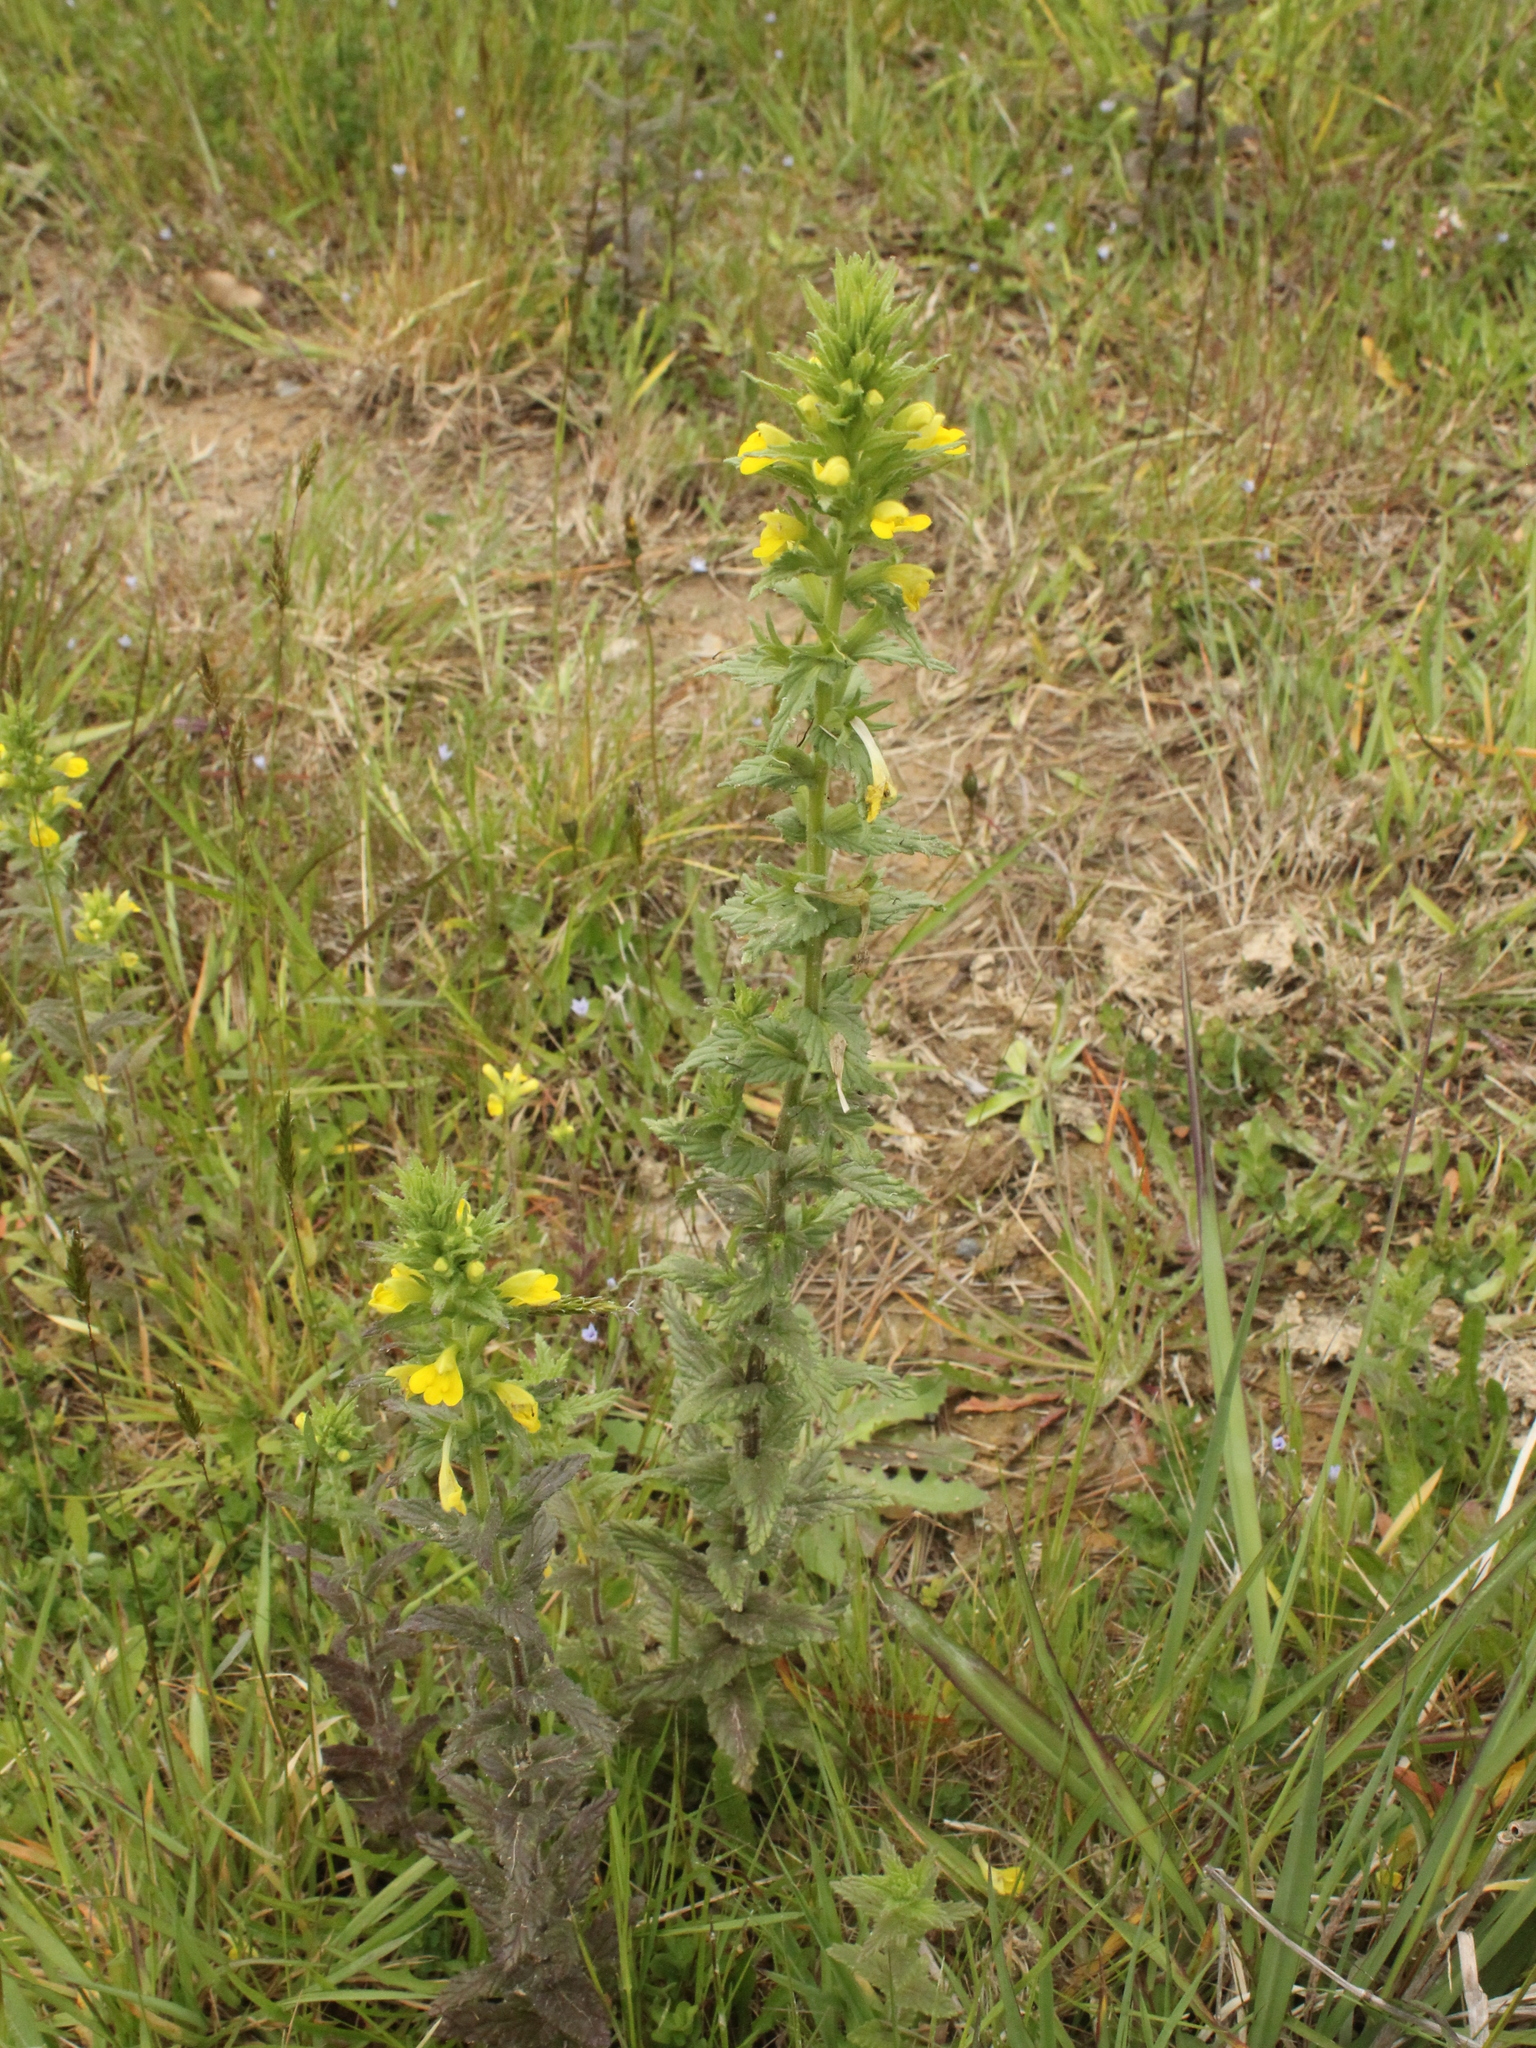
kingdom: Plantae
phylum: Tracheophyta
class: Magnoliopsida
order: Lamiales
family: Orobanchaceae
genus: Bellardia
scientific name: Bellardia viscosa
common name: Sticky parentucellia
